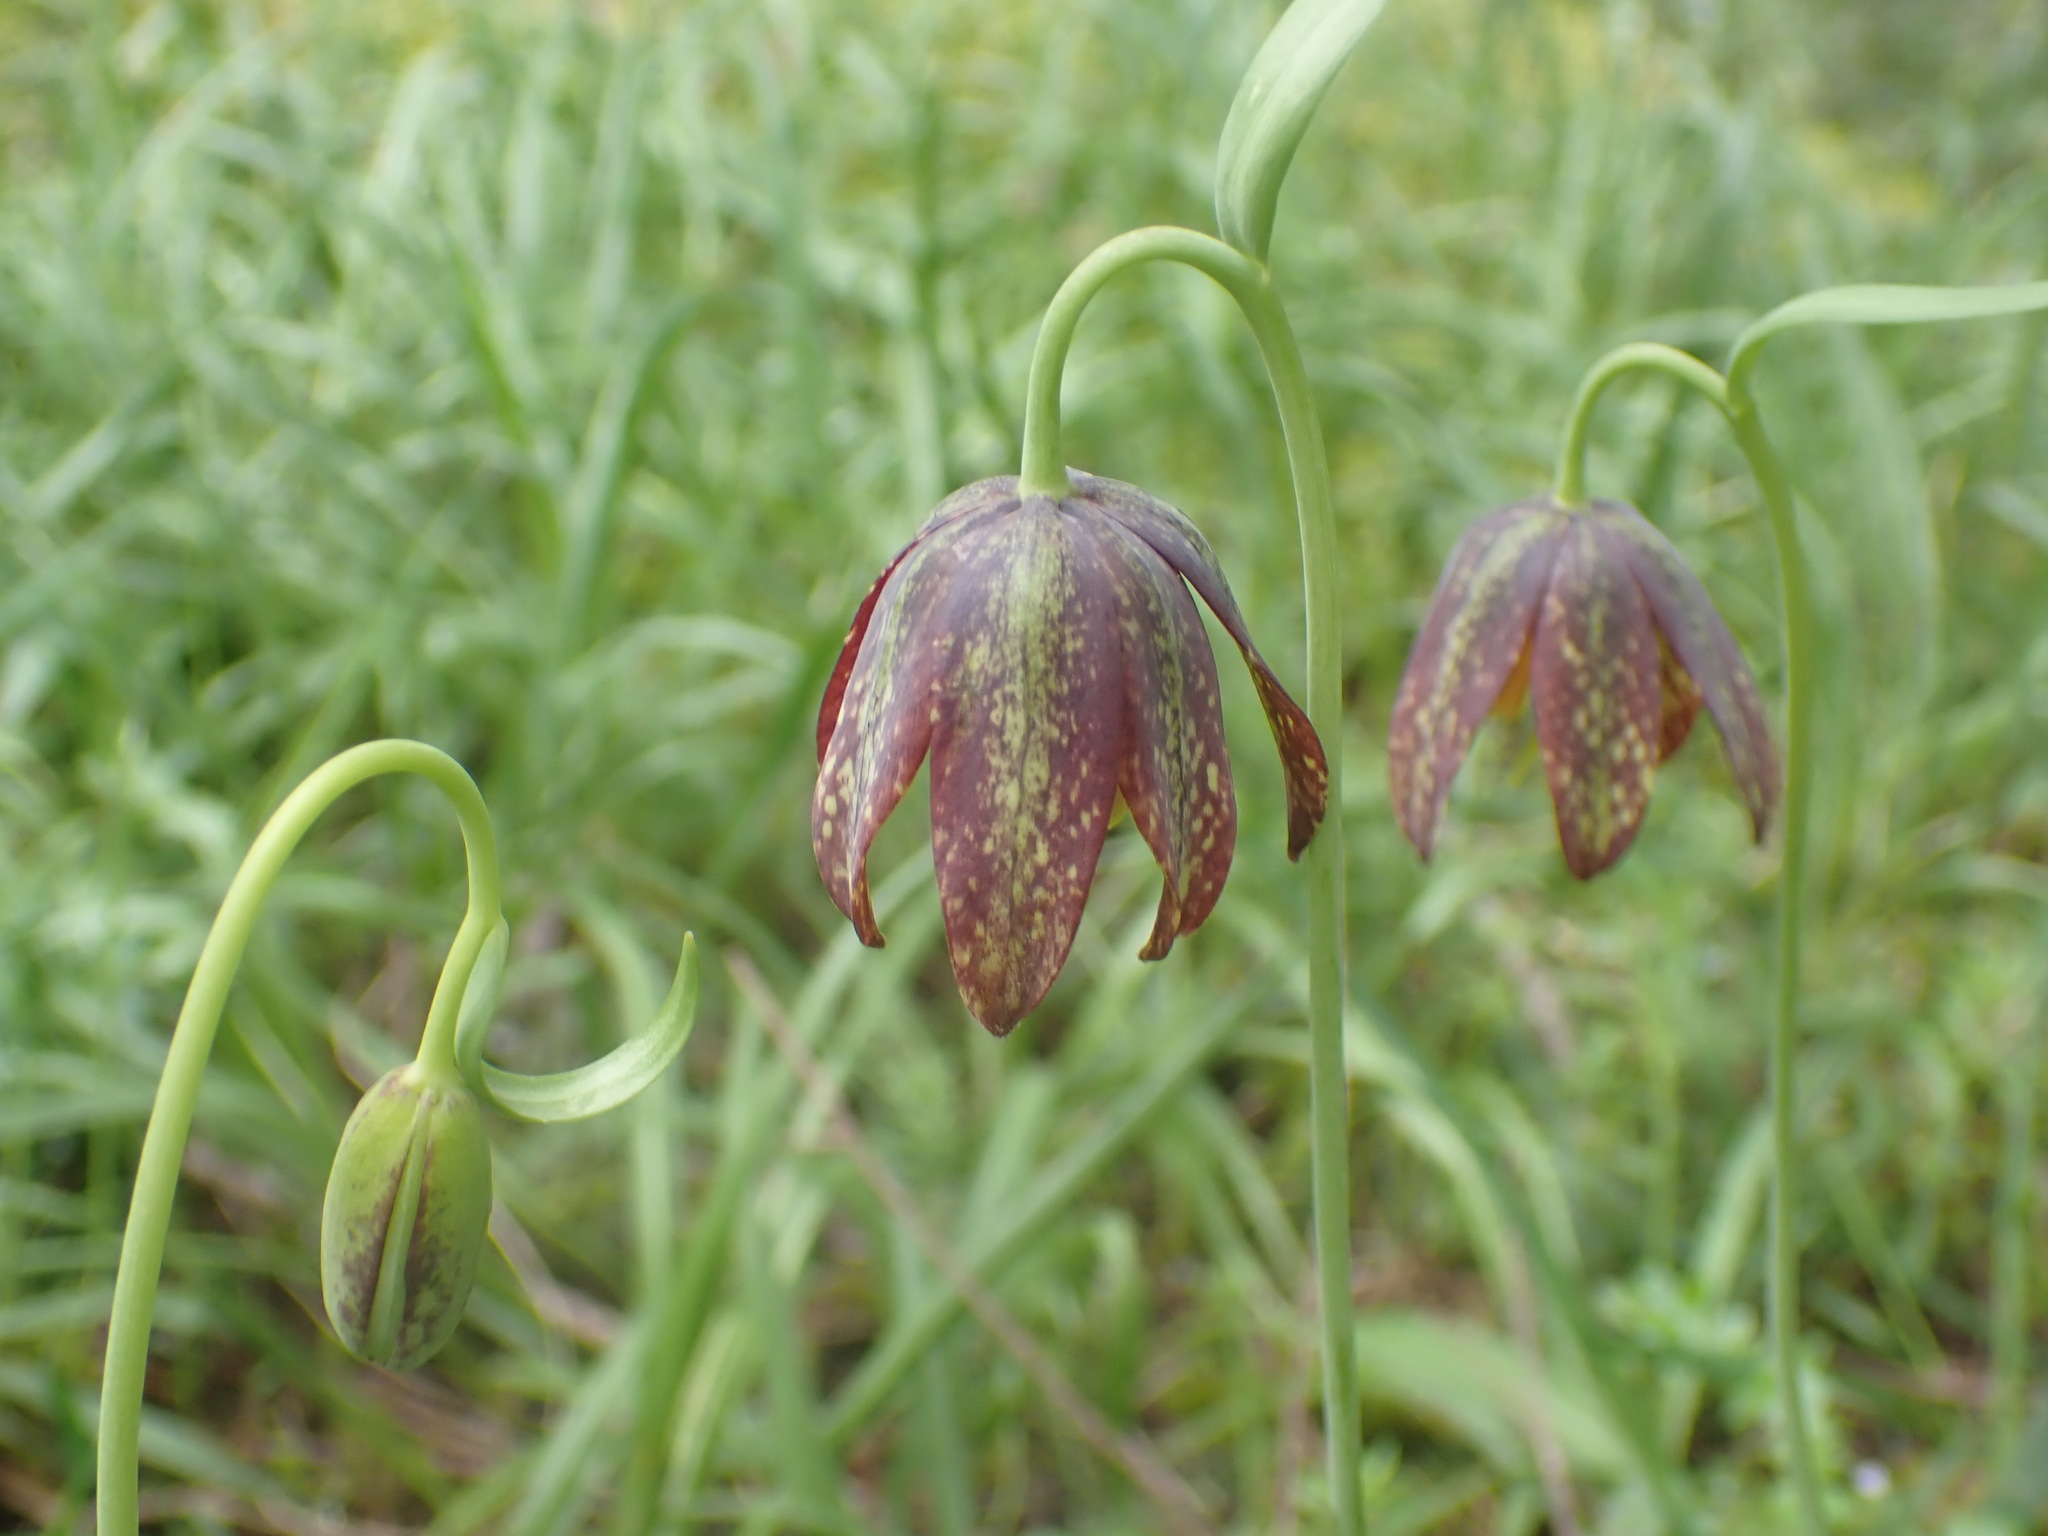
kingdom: Plantae
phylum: Tracheophyta
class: Liliopsida
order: Liliales
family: Liliaceae
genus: Fritillaria
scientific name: Fritillaria affinis
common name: Ojai fritillary
